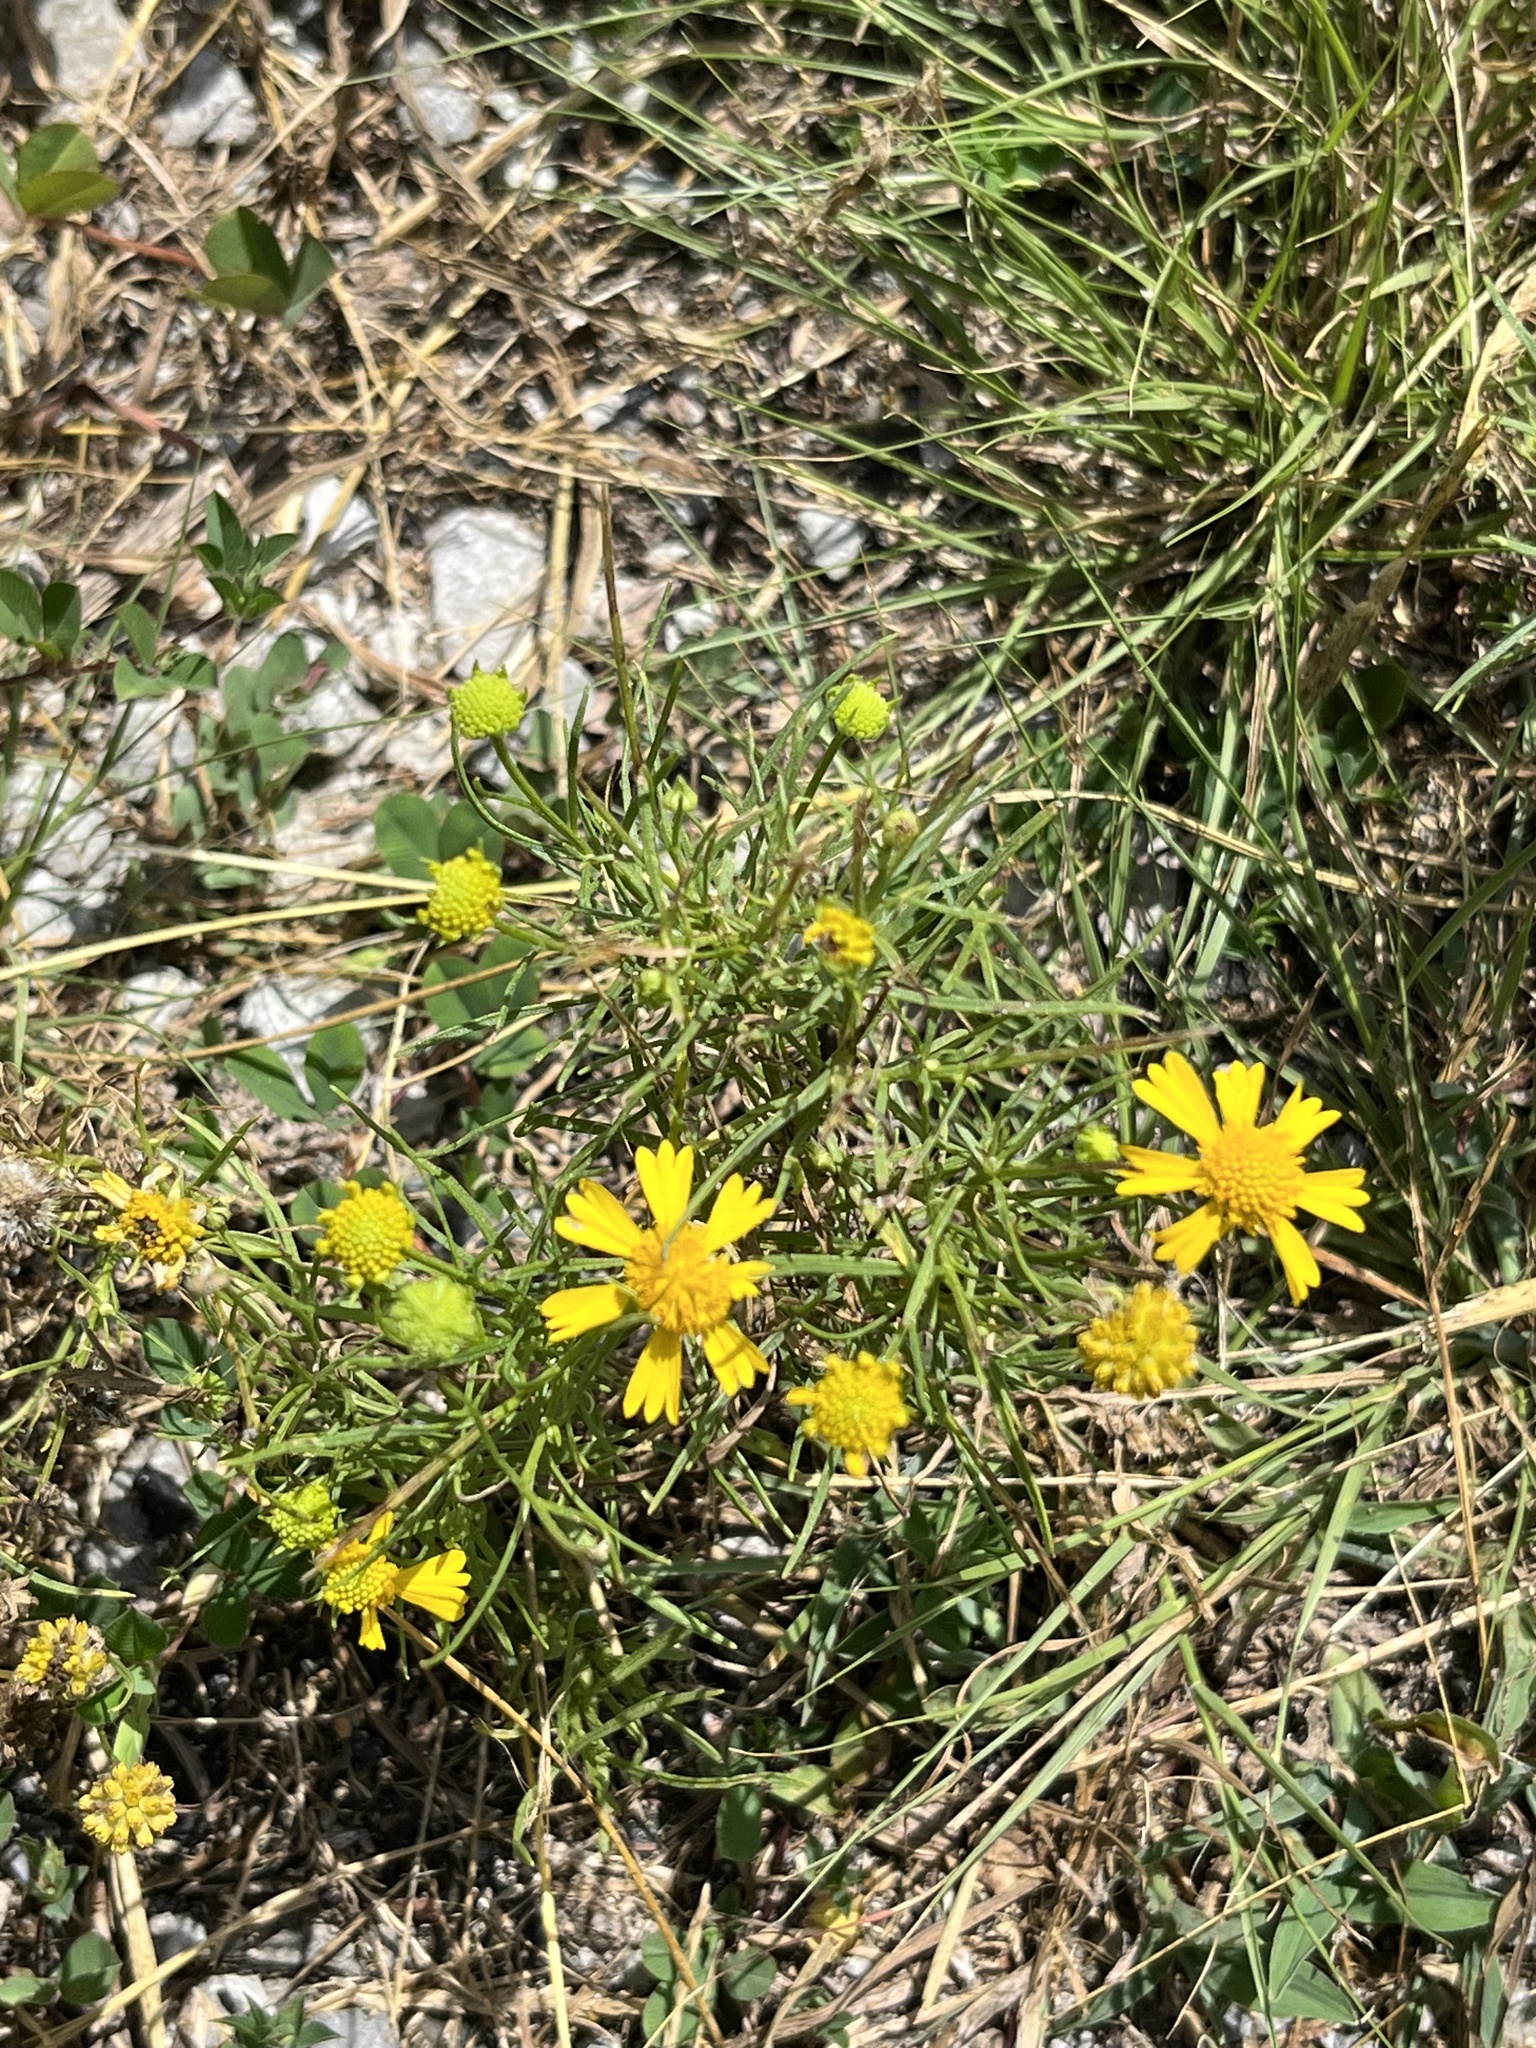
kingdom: Plantae
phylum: Tracheophyta
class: Magnoliopsida
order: Asterales
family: Asteraceae
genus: Helenium
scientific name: Helenium amarum
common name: Bitter sneezeweed
